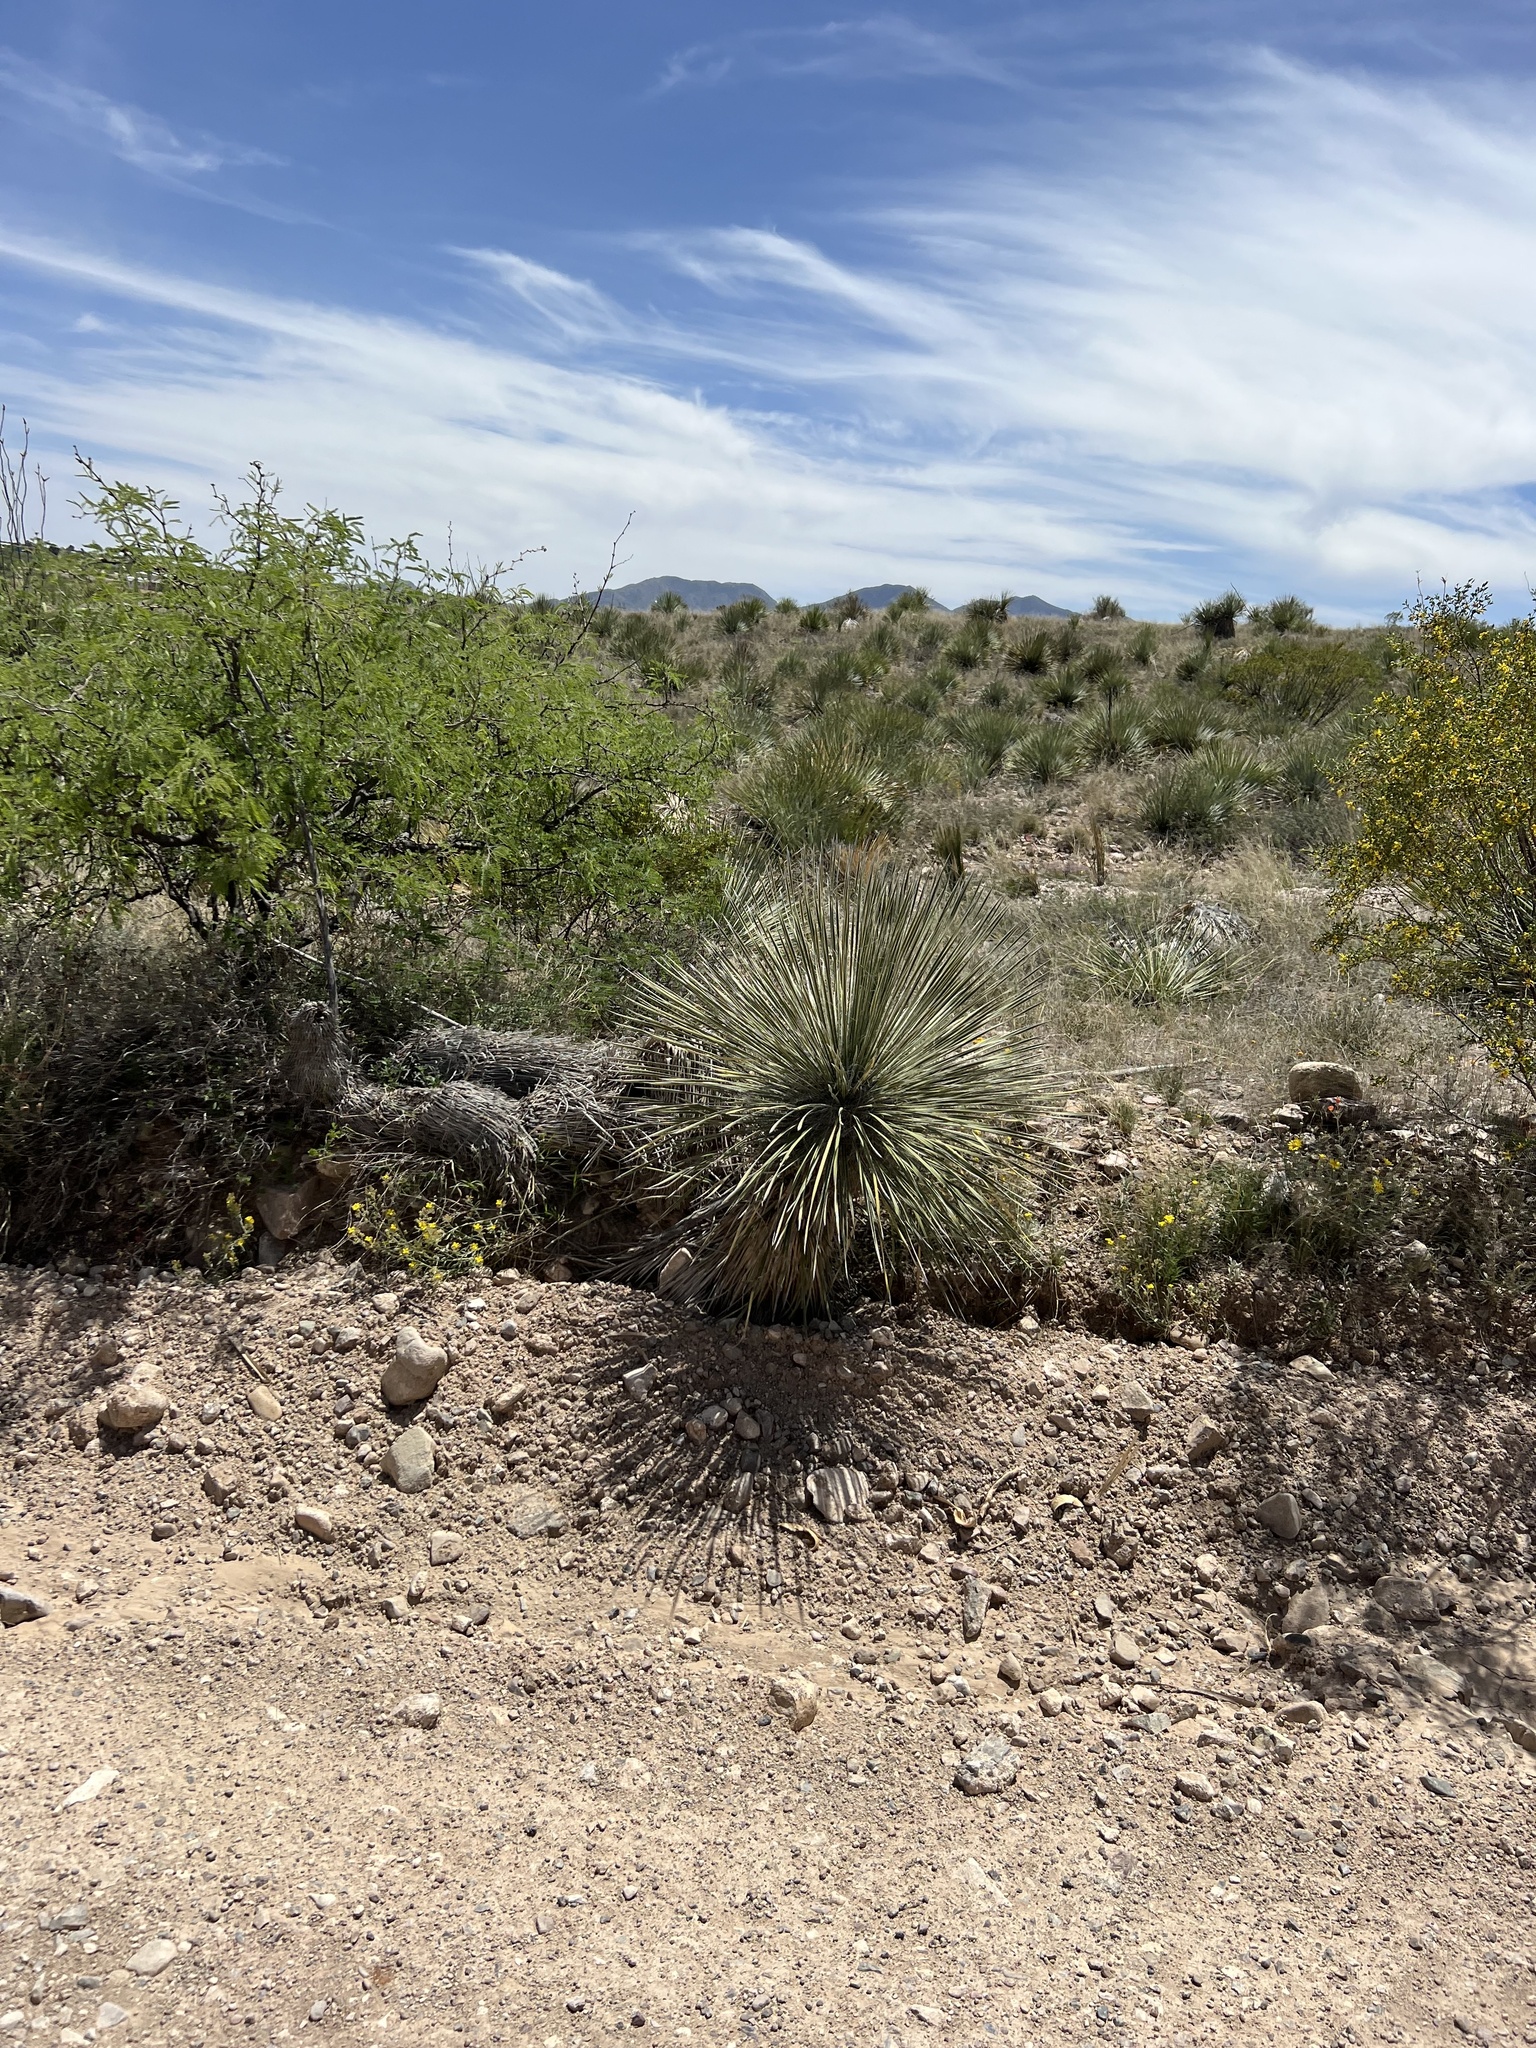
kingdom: Plantae
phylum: Tracheophyta
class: Liliopsida
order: Asparagales
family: Asparagaceae
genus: Yucca
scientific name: Yucca elata
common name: Palmella
